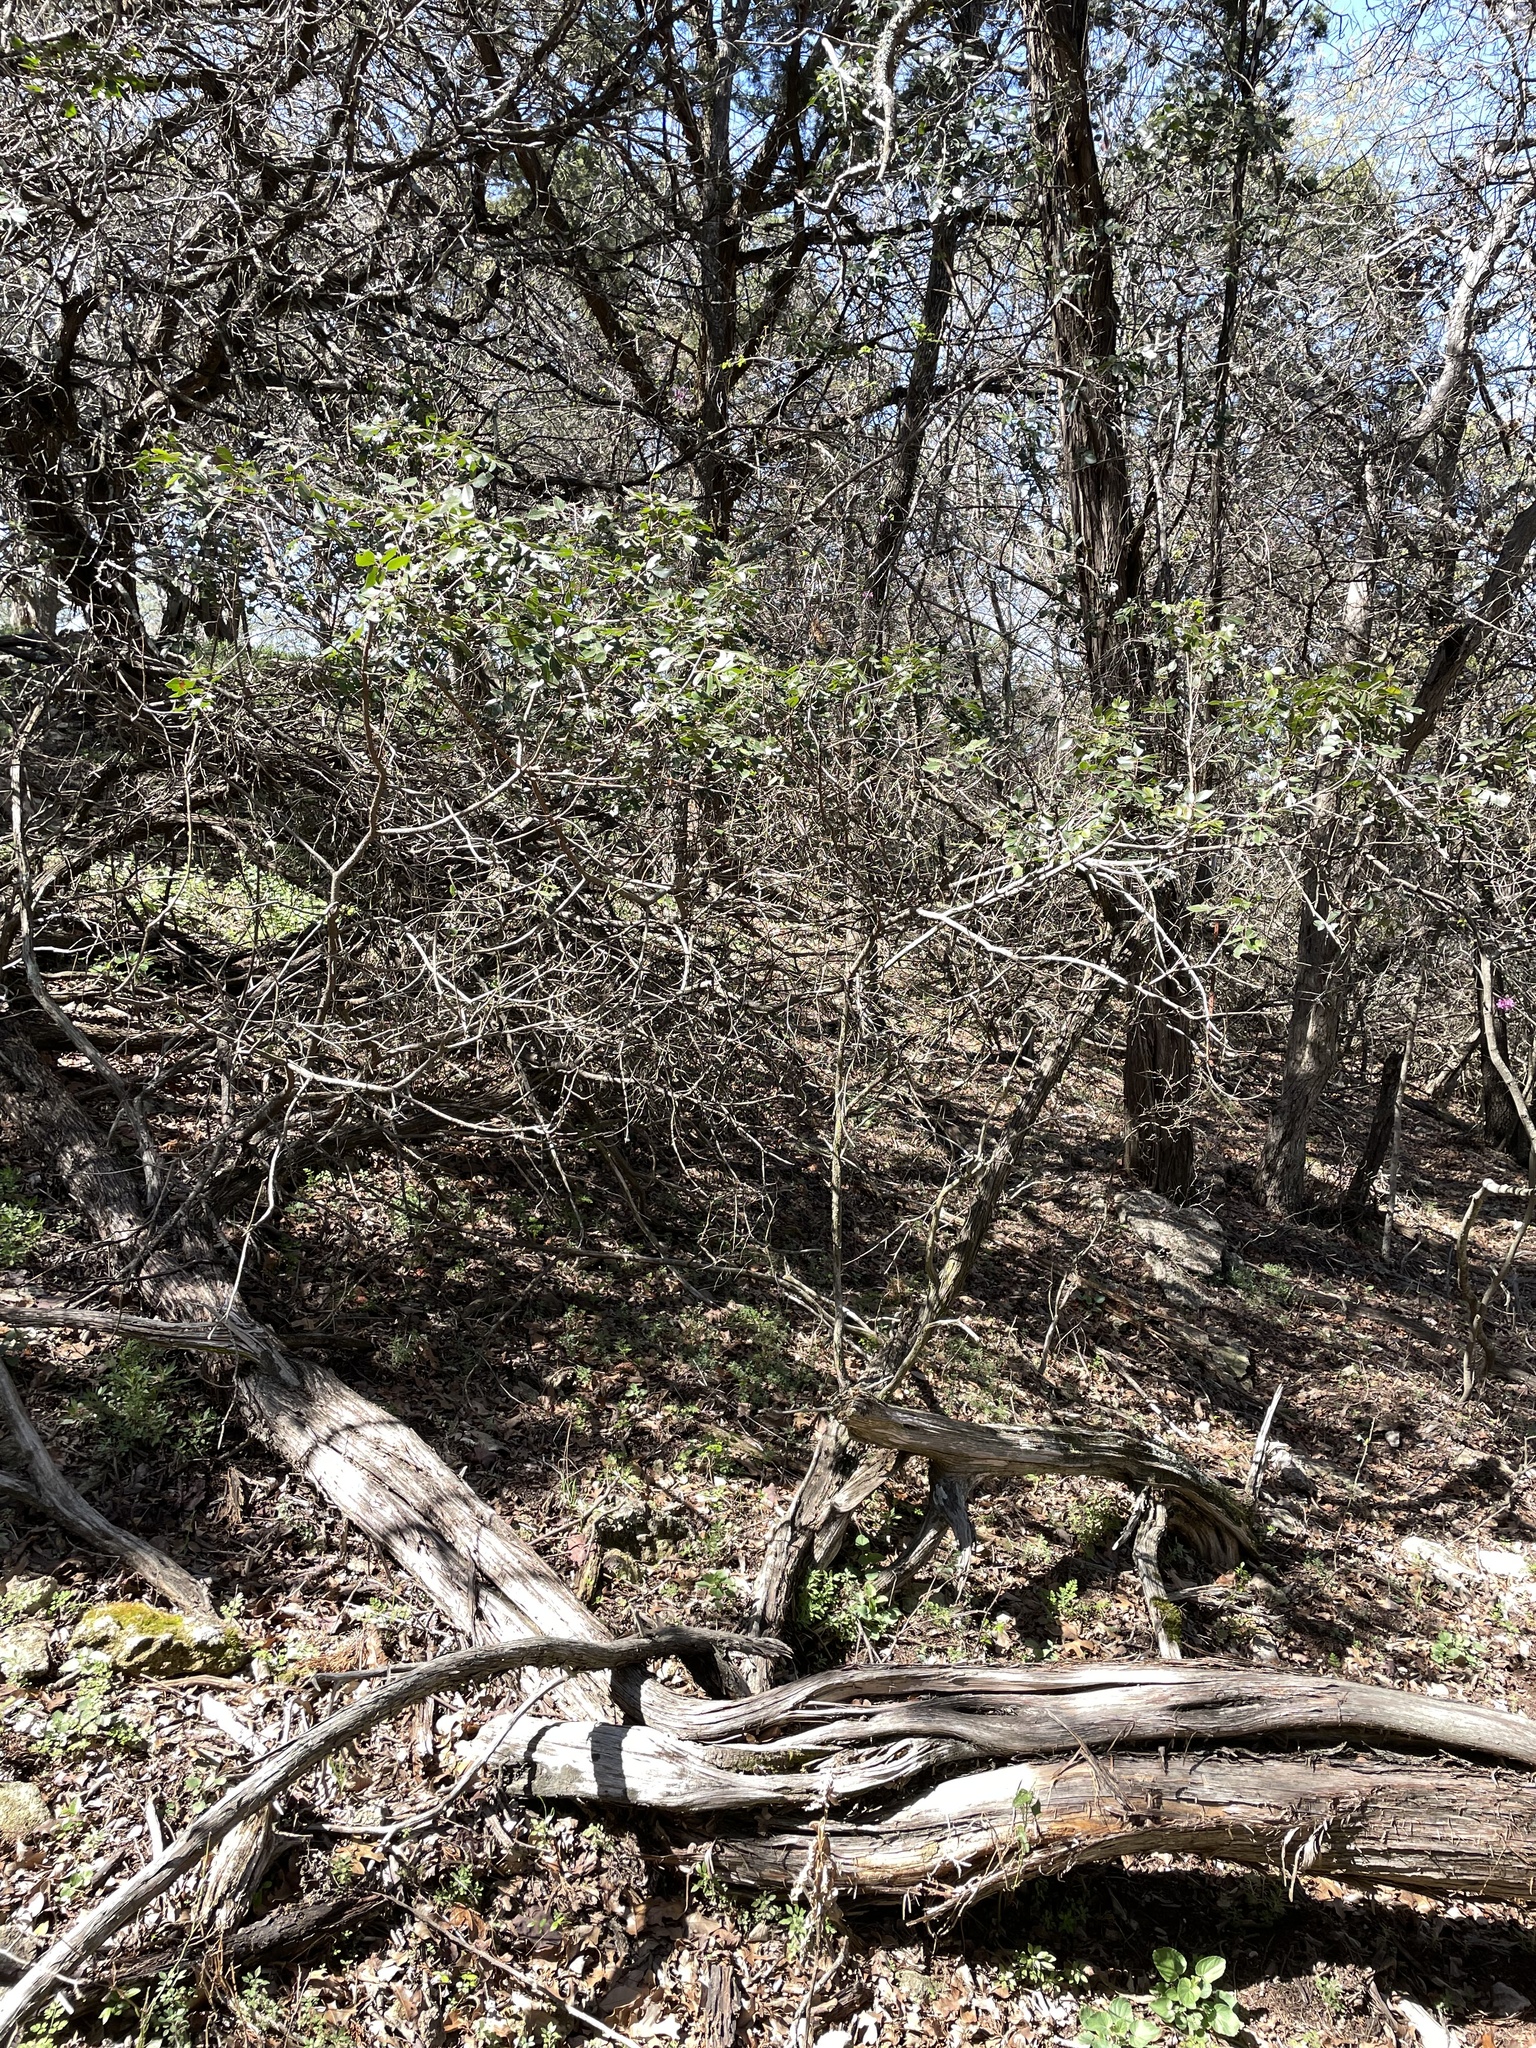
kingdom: Plantae
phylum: Tracheophyta
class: Magnoliopsida
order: Sapindales
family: Anacardiaceae
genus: Rhus
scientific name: Rhus virens
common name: Evergreen sumac
